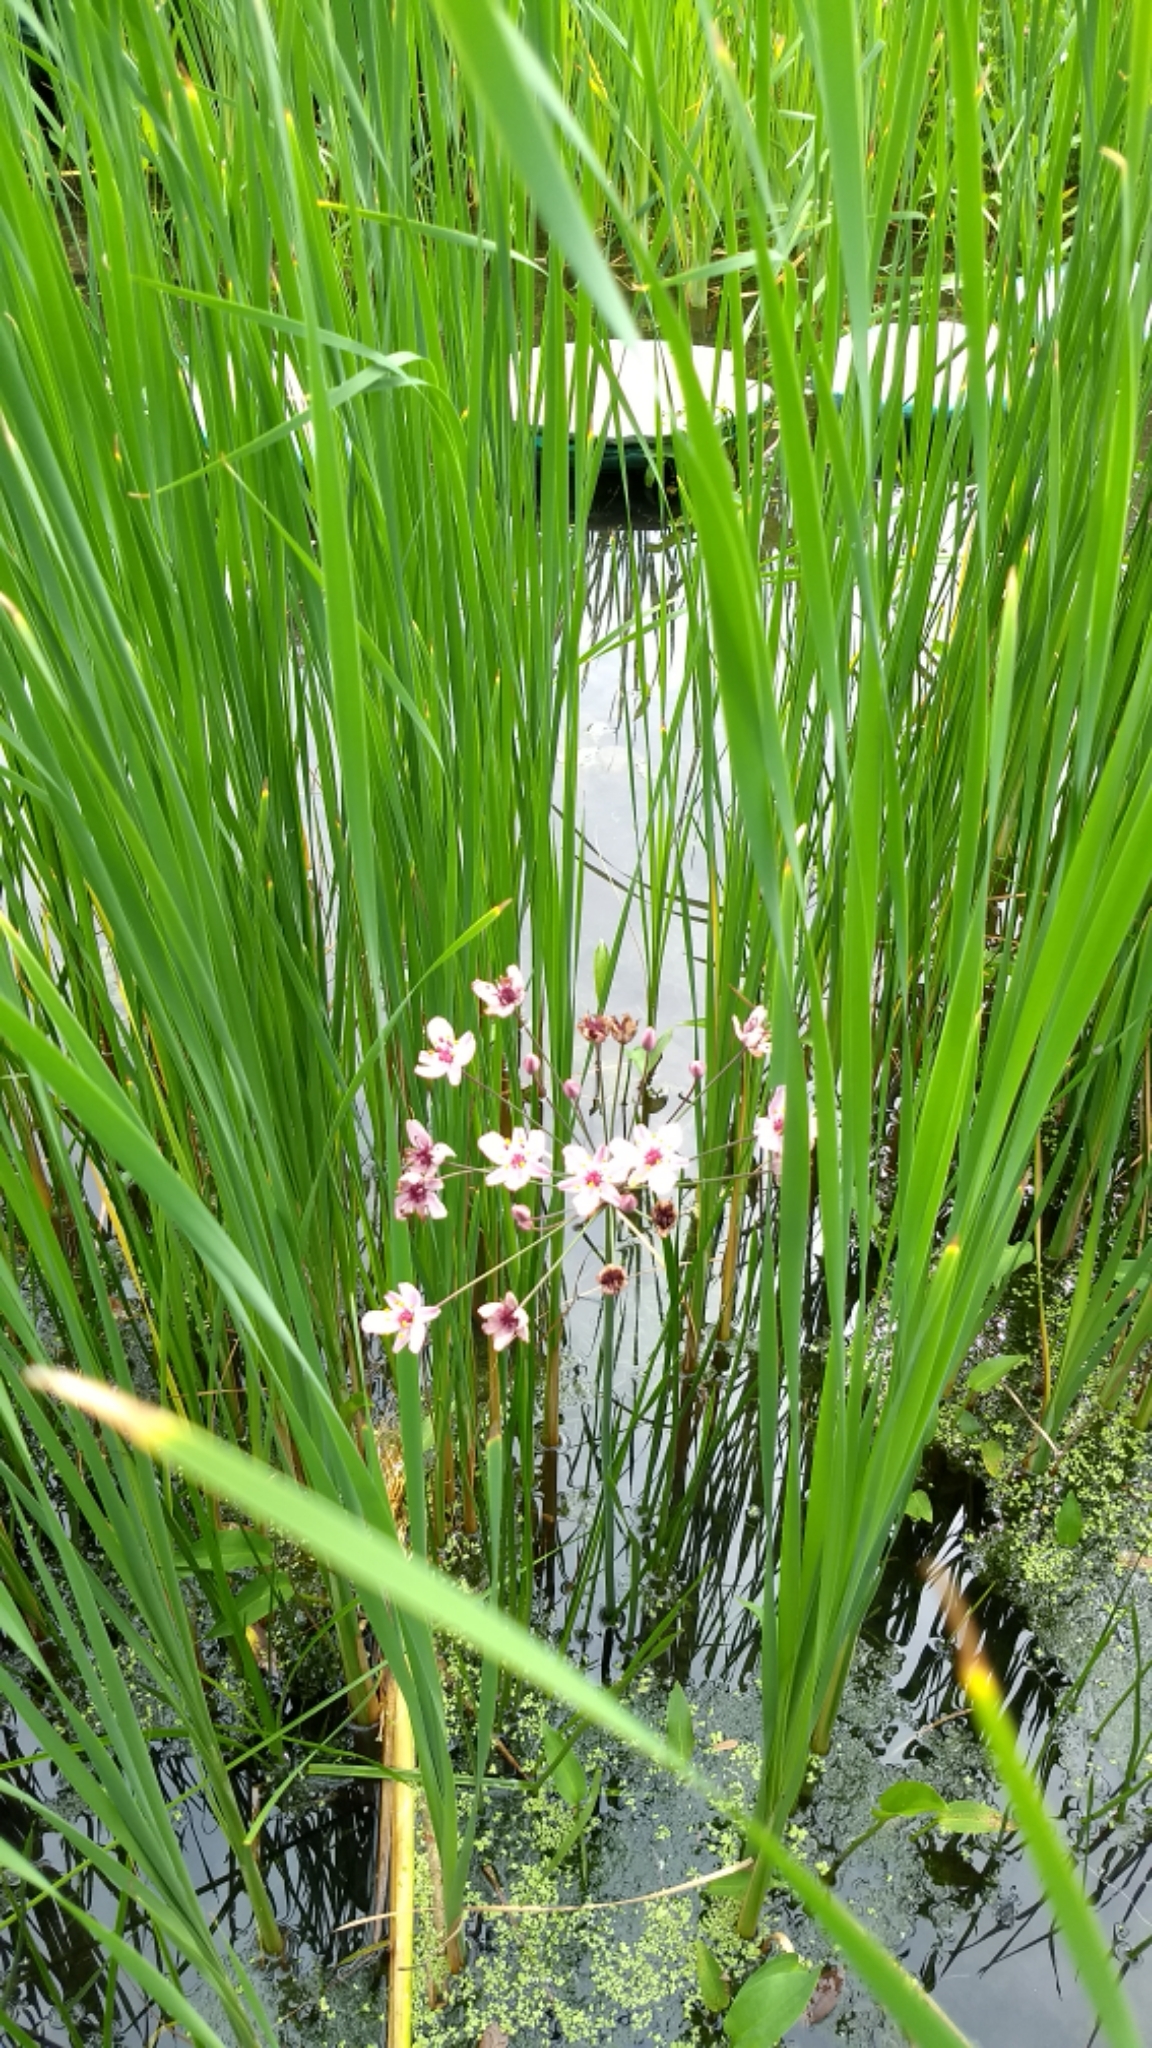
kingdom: Plantae
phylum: Tracheophyta
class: Liliopsida
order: Alismatales
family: Butomaceae
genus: Butomus
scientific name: Butomus umbellatus
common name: Flowering-rush
